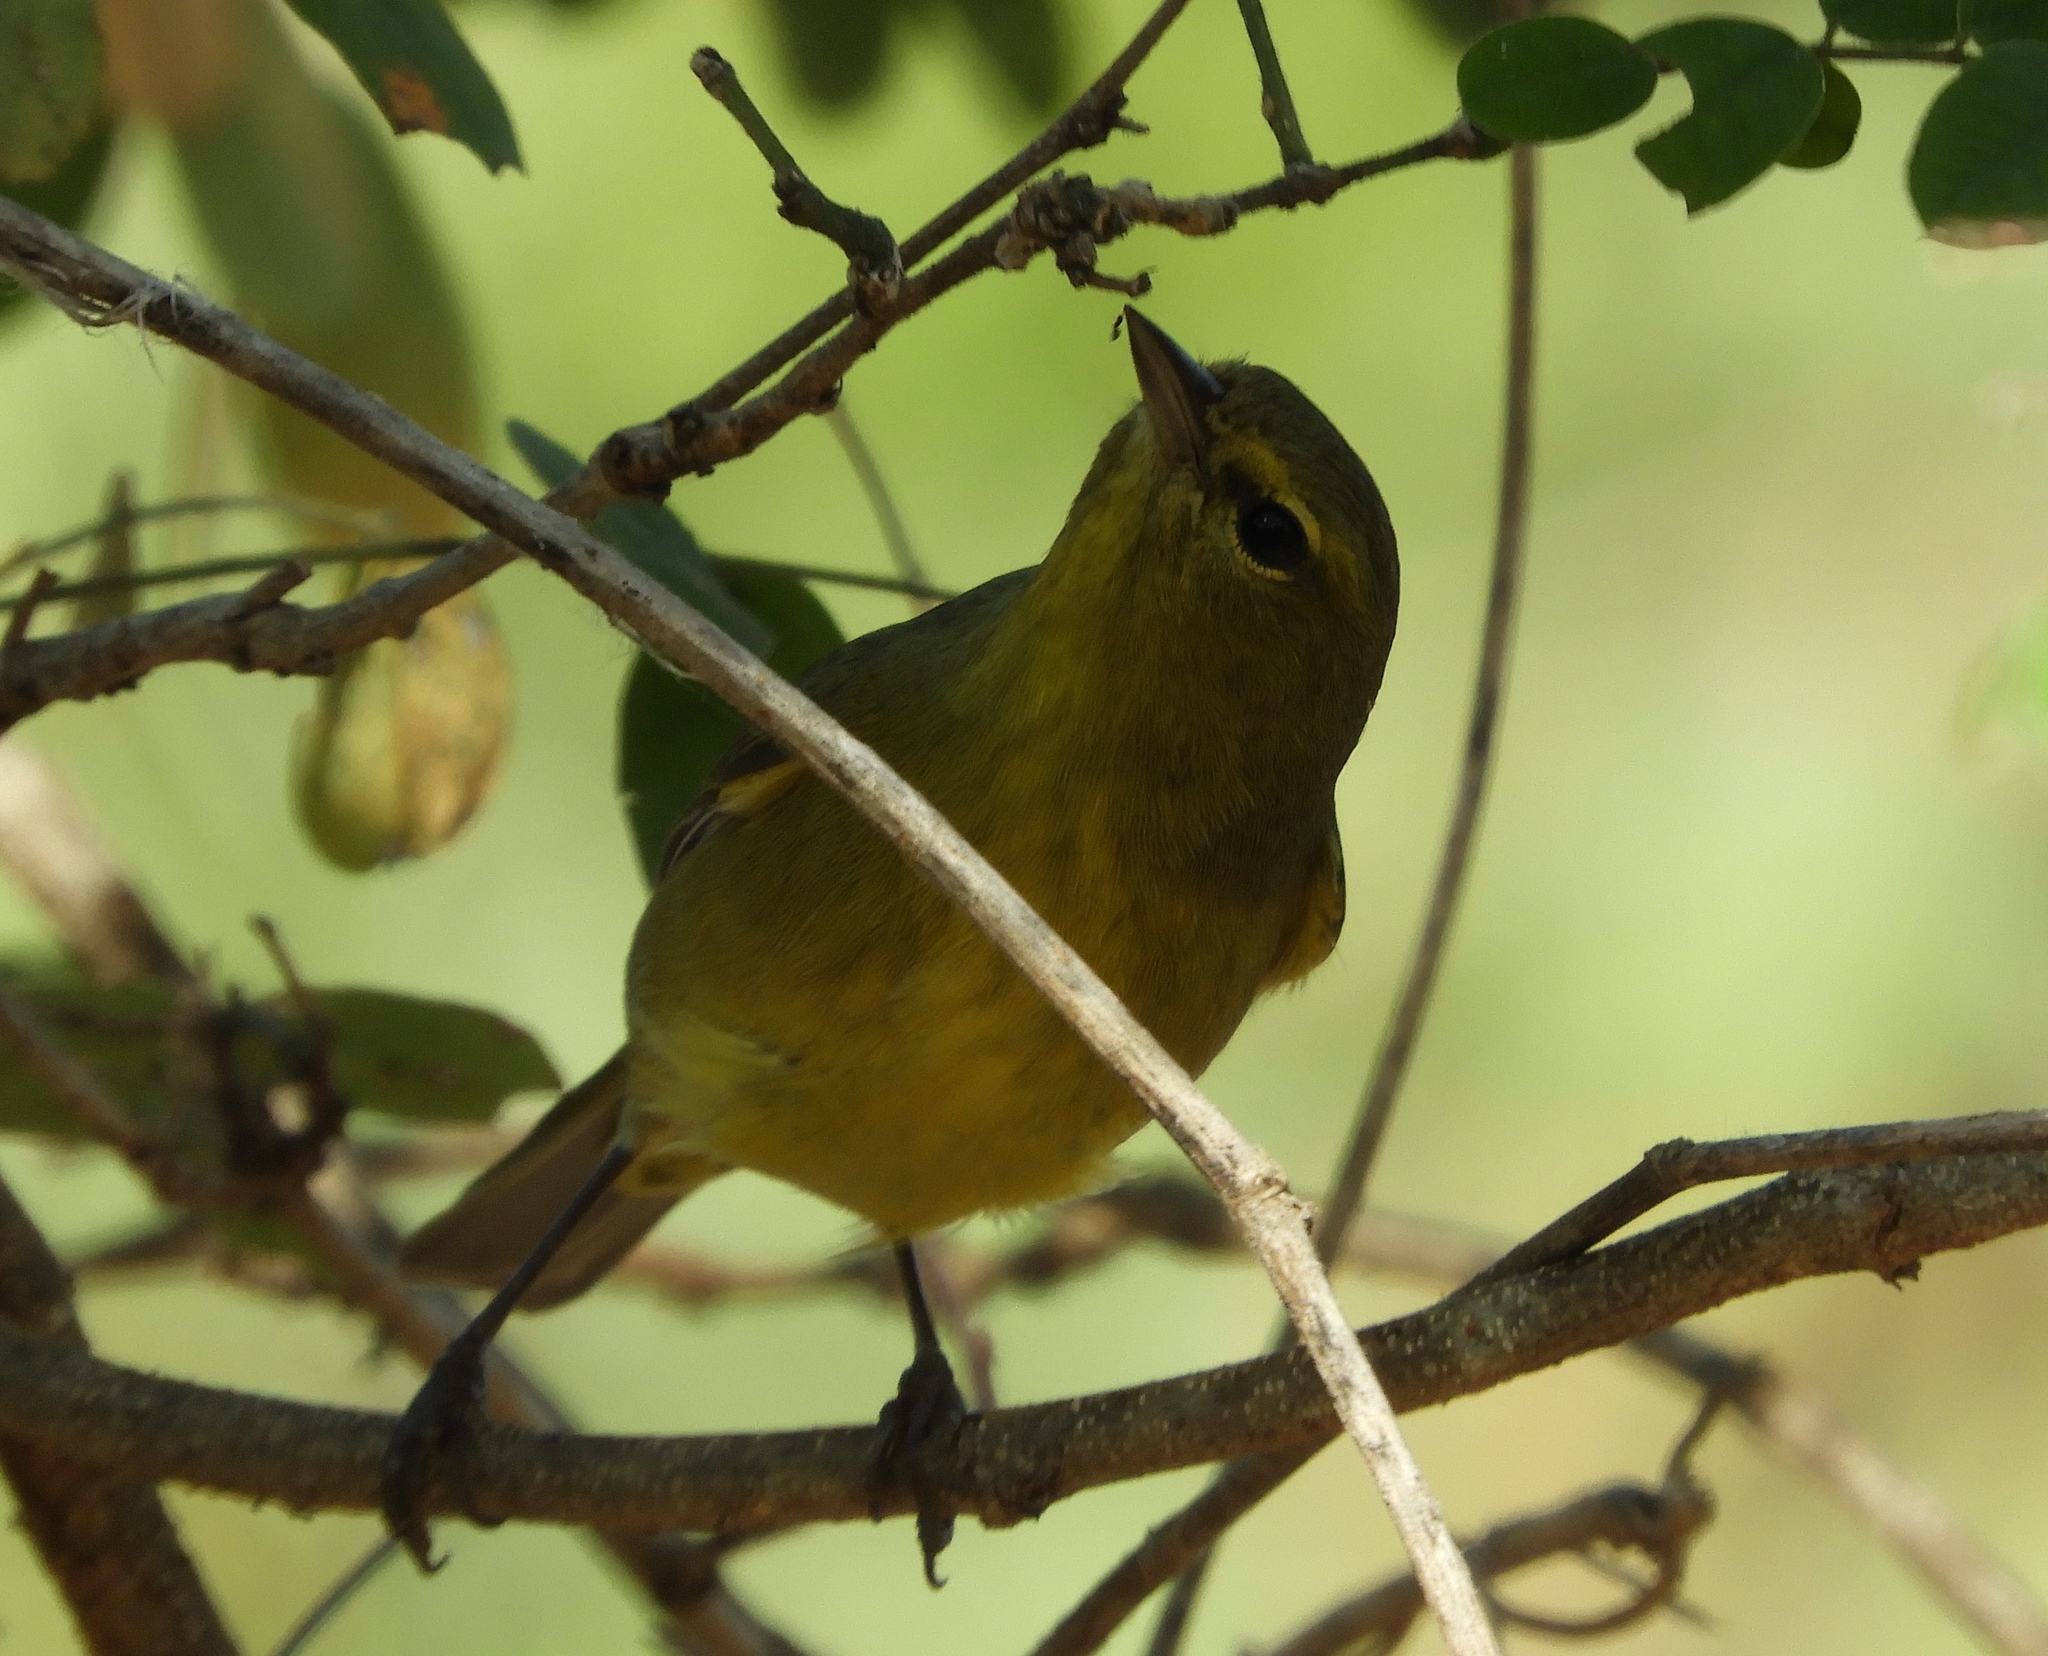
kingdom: Animalia
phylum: Chordata
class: Aves
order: Passeriformes
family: Parulidae
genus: Leiothlypis
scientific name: Leiothlypis celata
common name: Orange-crowned warbler
